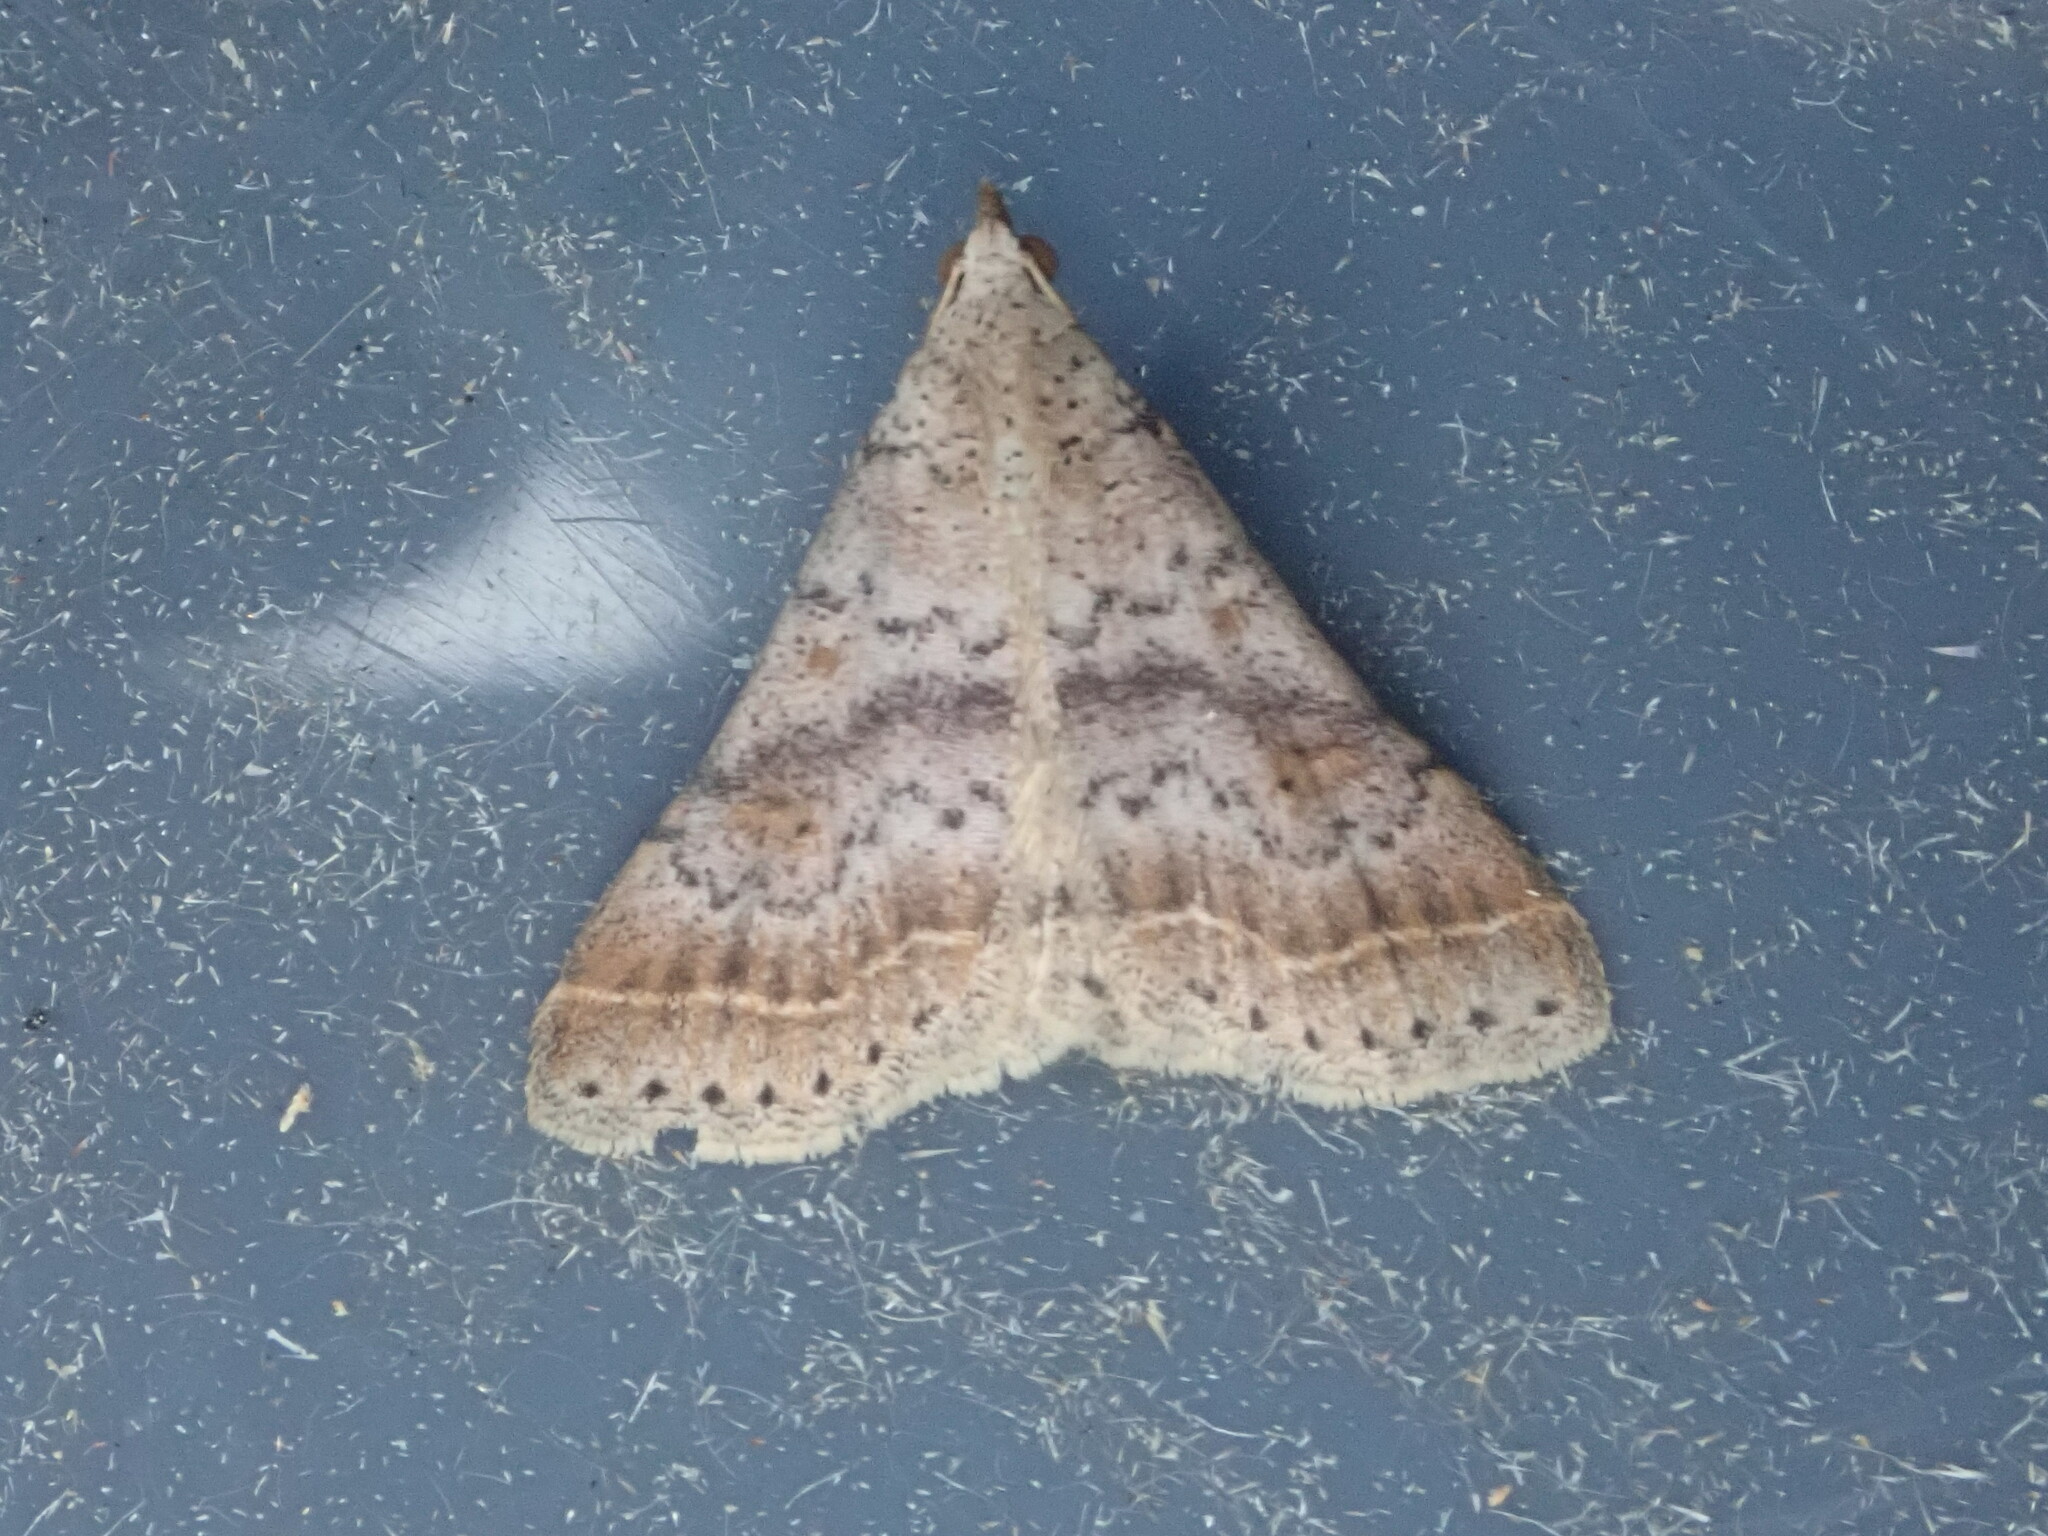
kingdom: Animalia
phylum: Arthropoda
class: Insecta
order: Lepidoptera
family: Erebidae
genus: Bleptina
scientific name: Bleptina caradrinalis
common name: Bent-winged owlet
